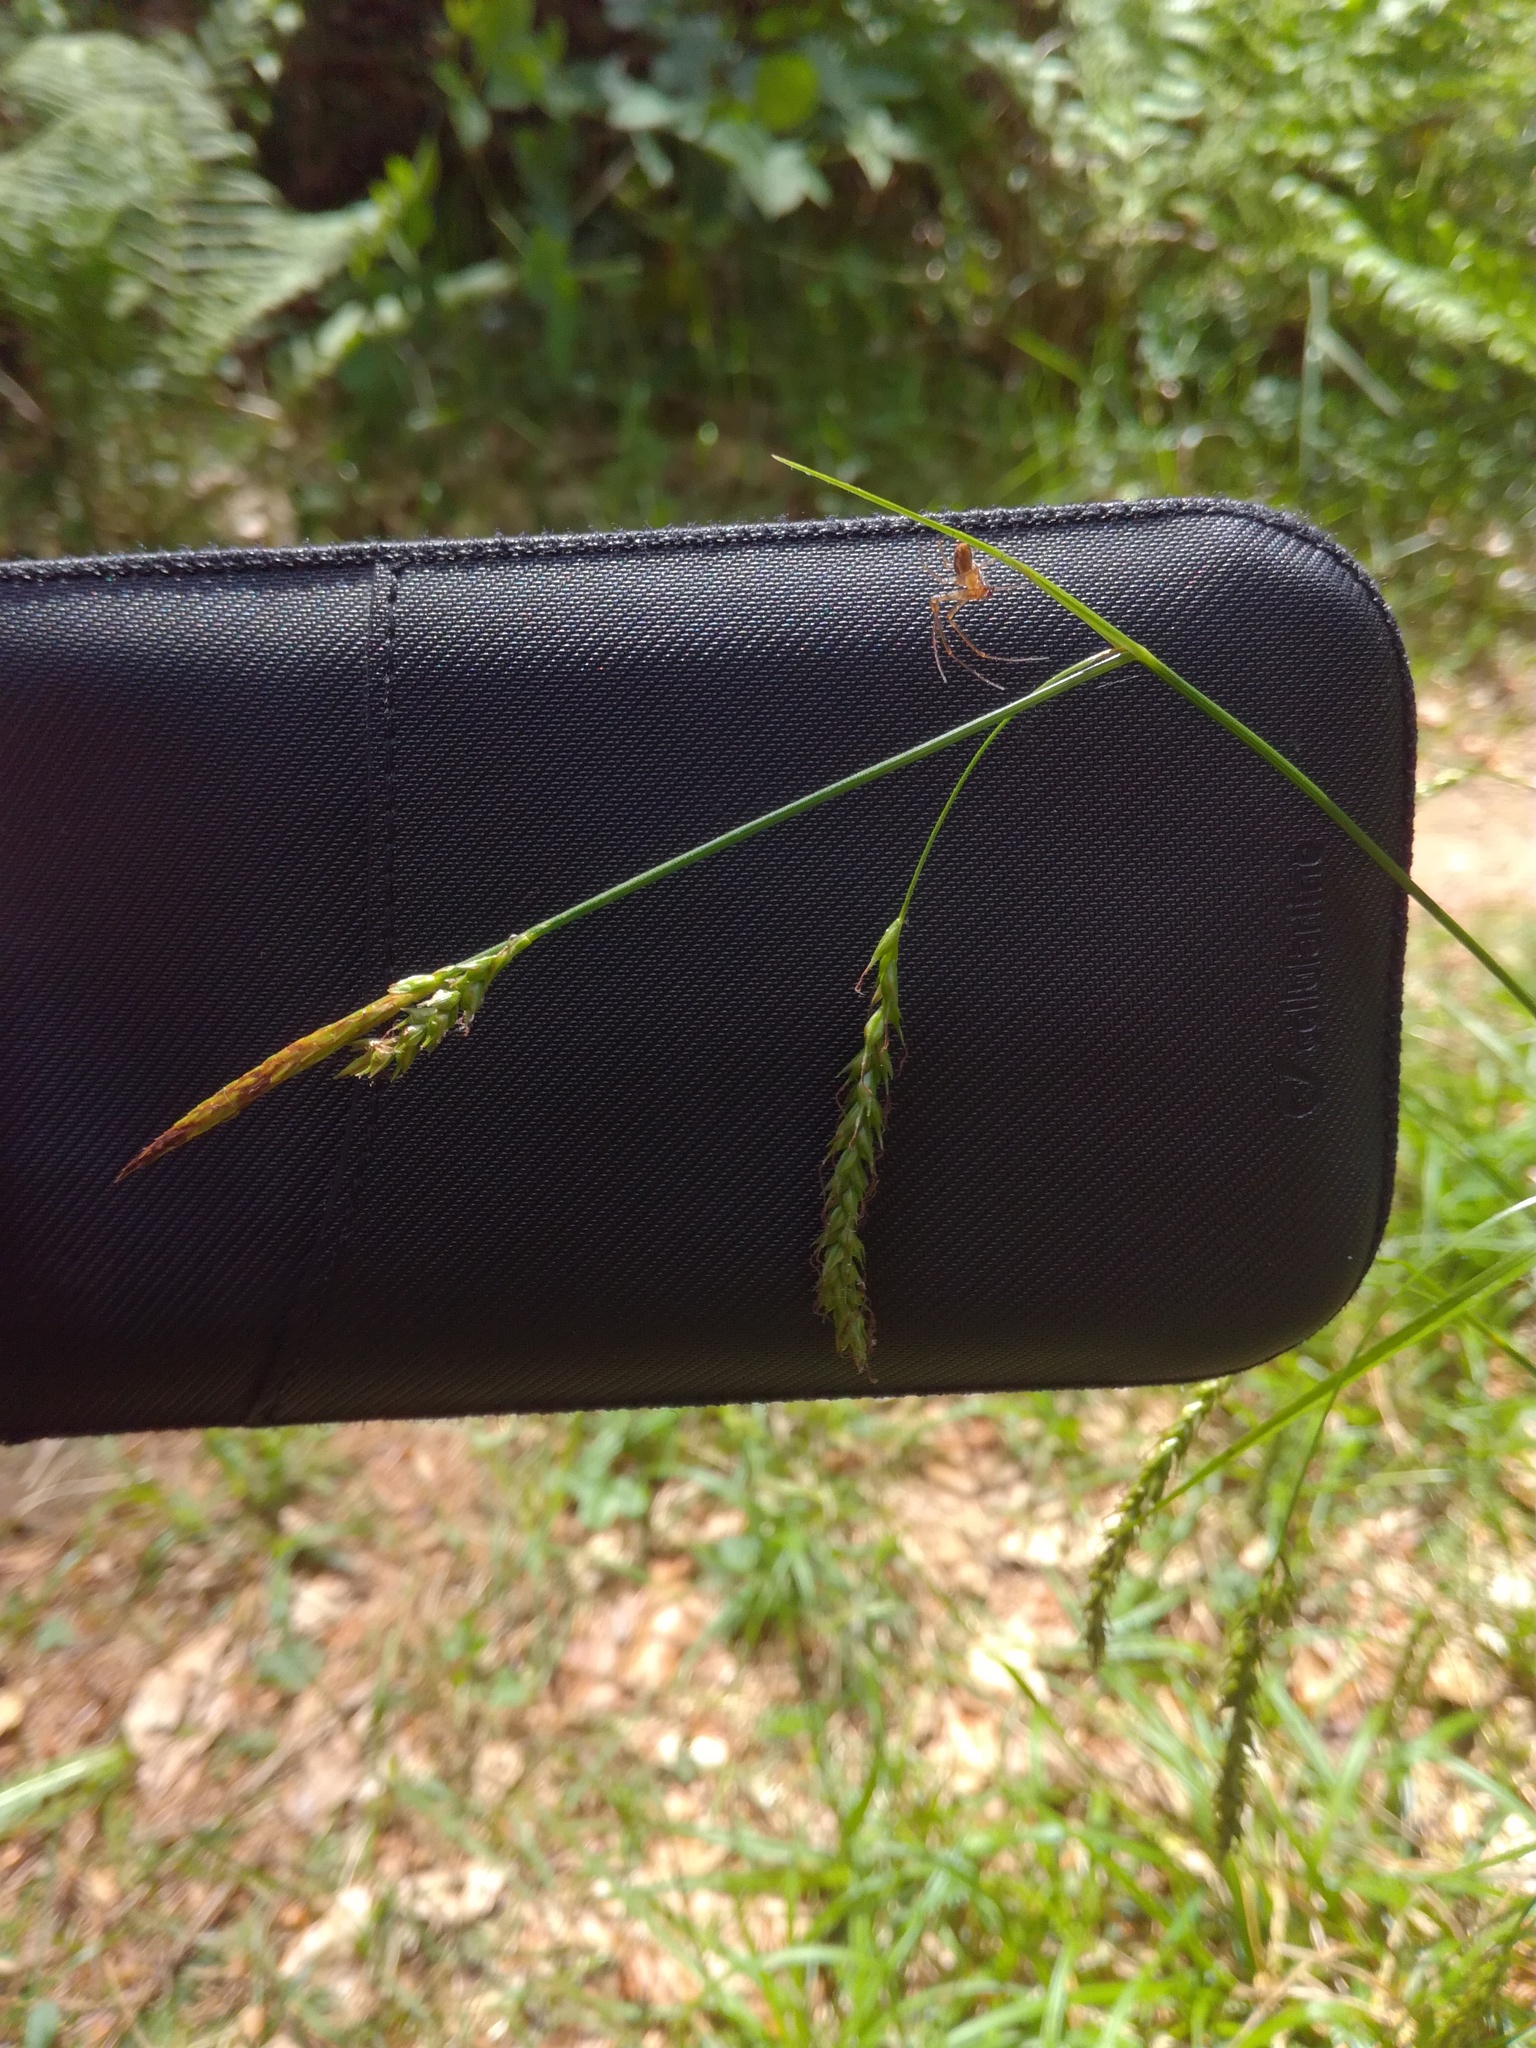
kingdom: Plantae
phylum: Tracheophyta
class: Liliopsida
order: Poales
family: Cyperaceae
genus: Carex
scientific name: Carex sylvatica
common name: Wood-sedge
